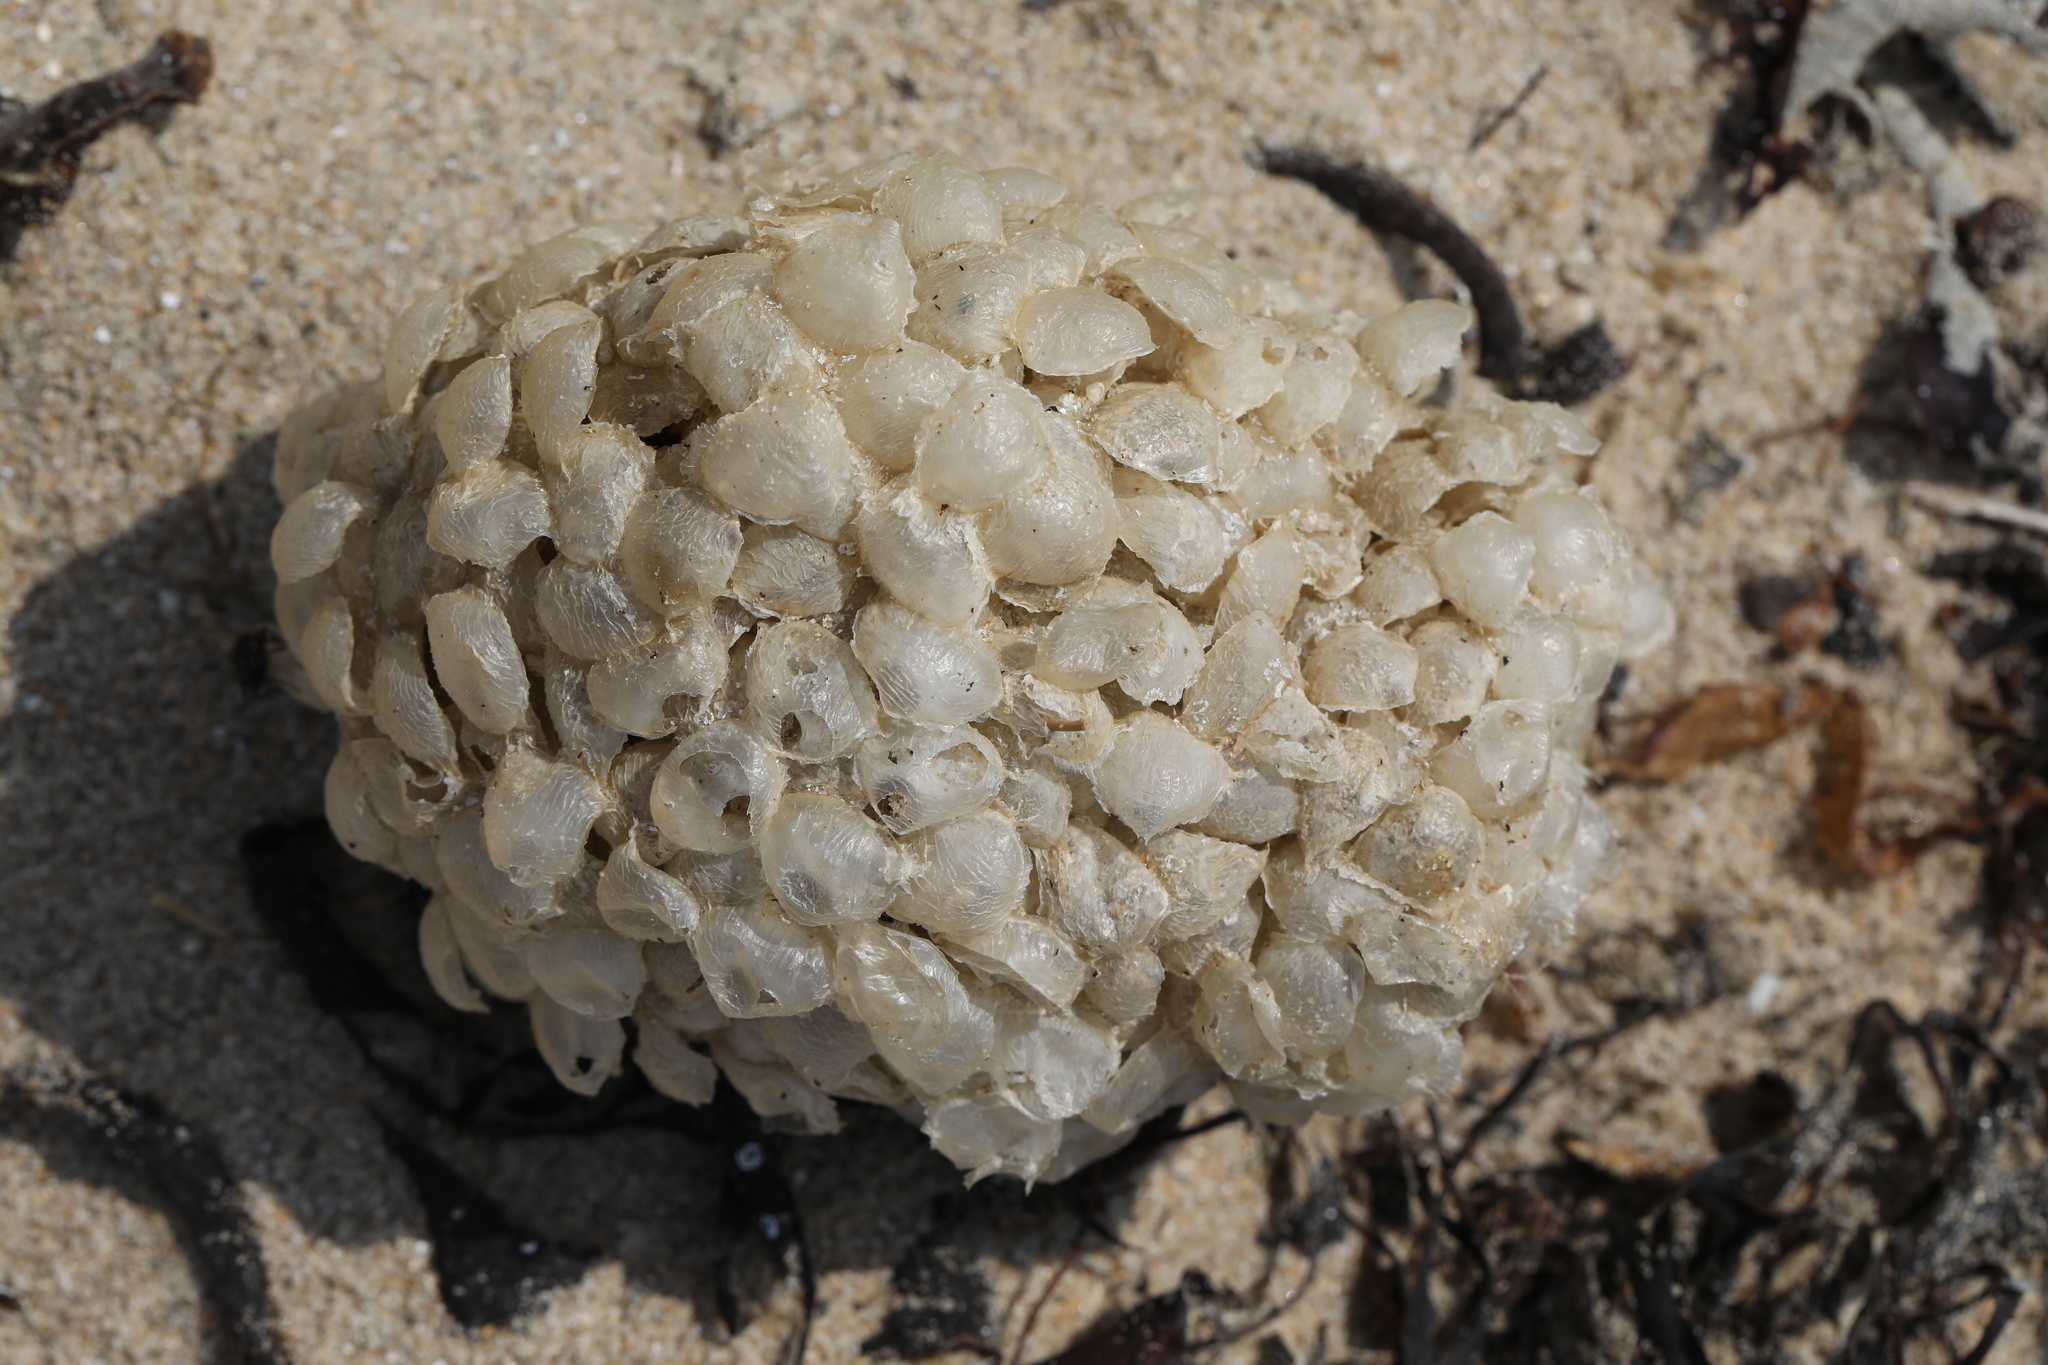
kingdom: Animalia
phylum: Mollusca
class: Gastropoda
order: Neogastropoda
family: Buccinidae
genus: Buccinum
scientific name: Buccinum undatum
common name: Common whelk
